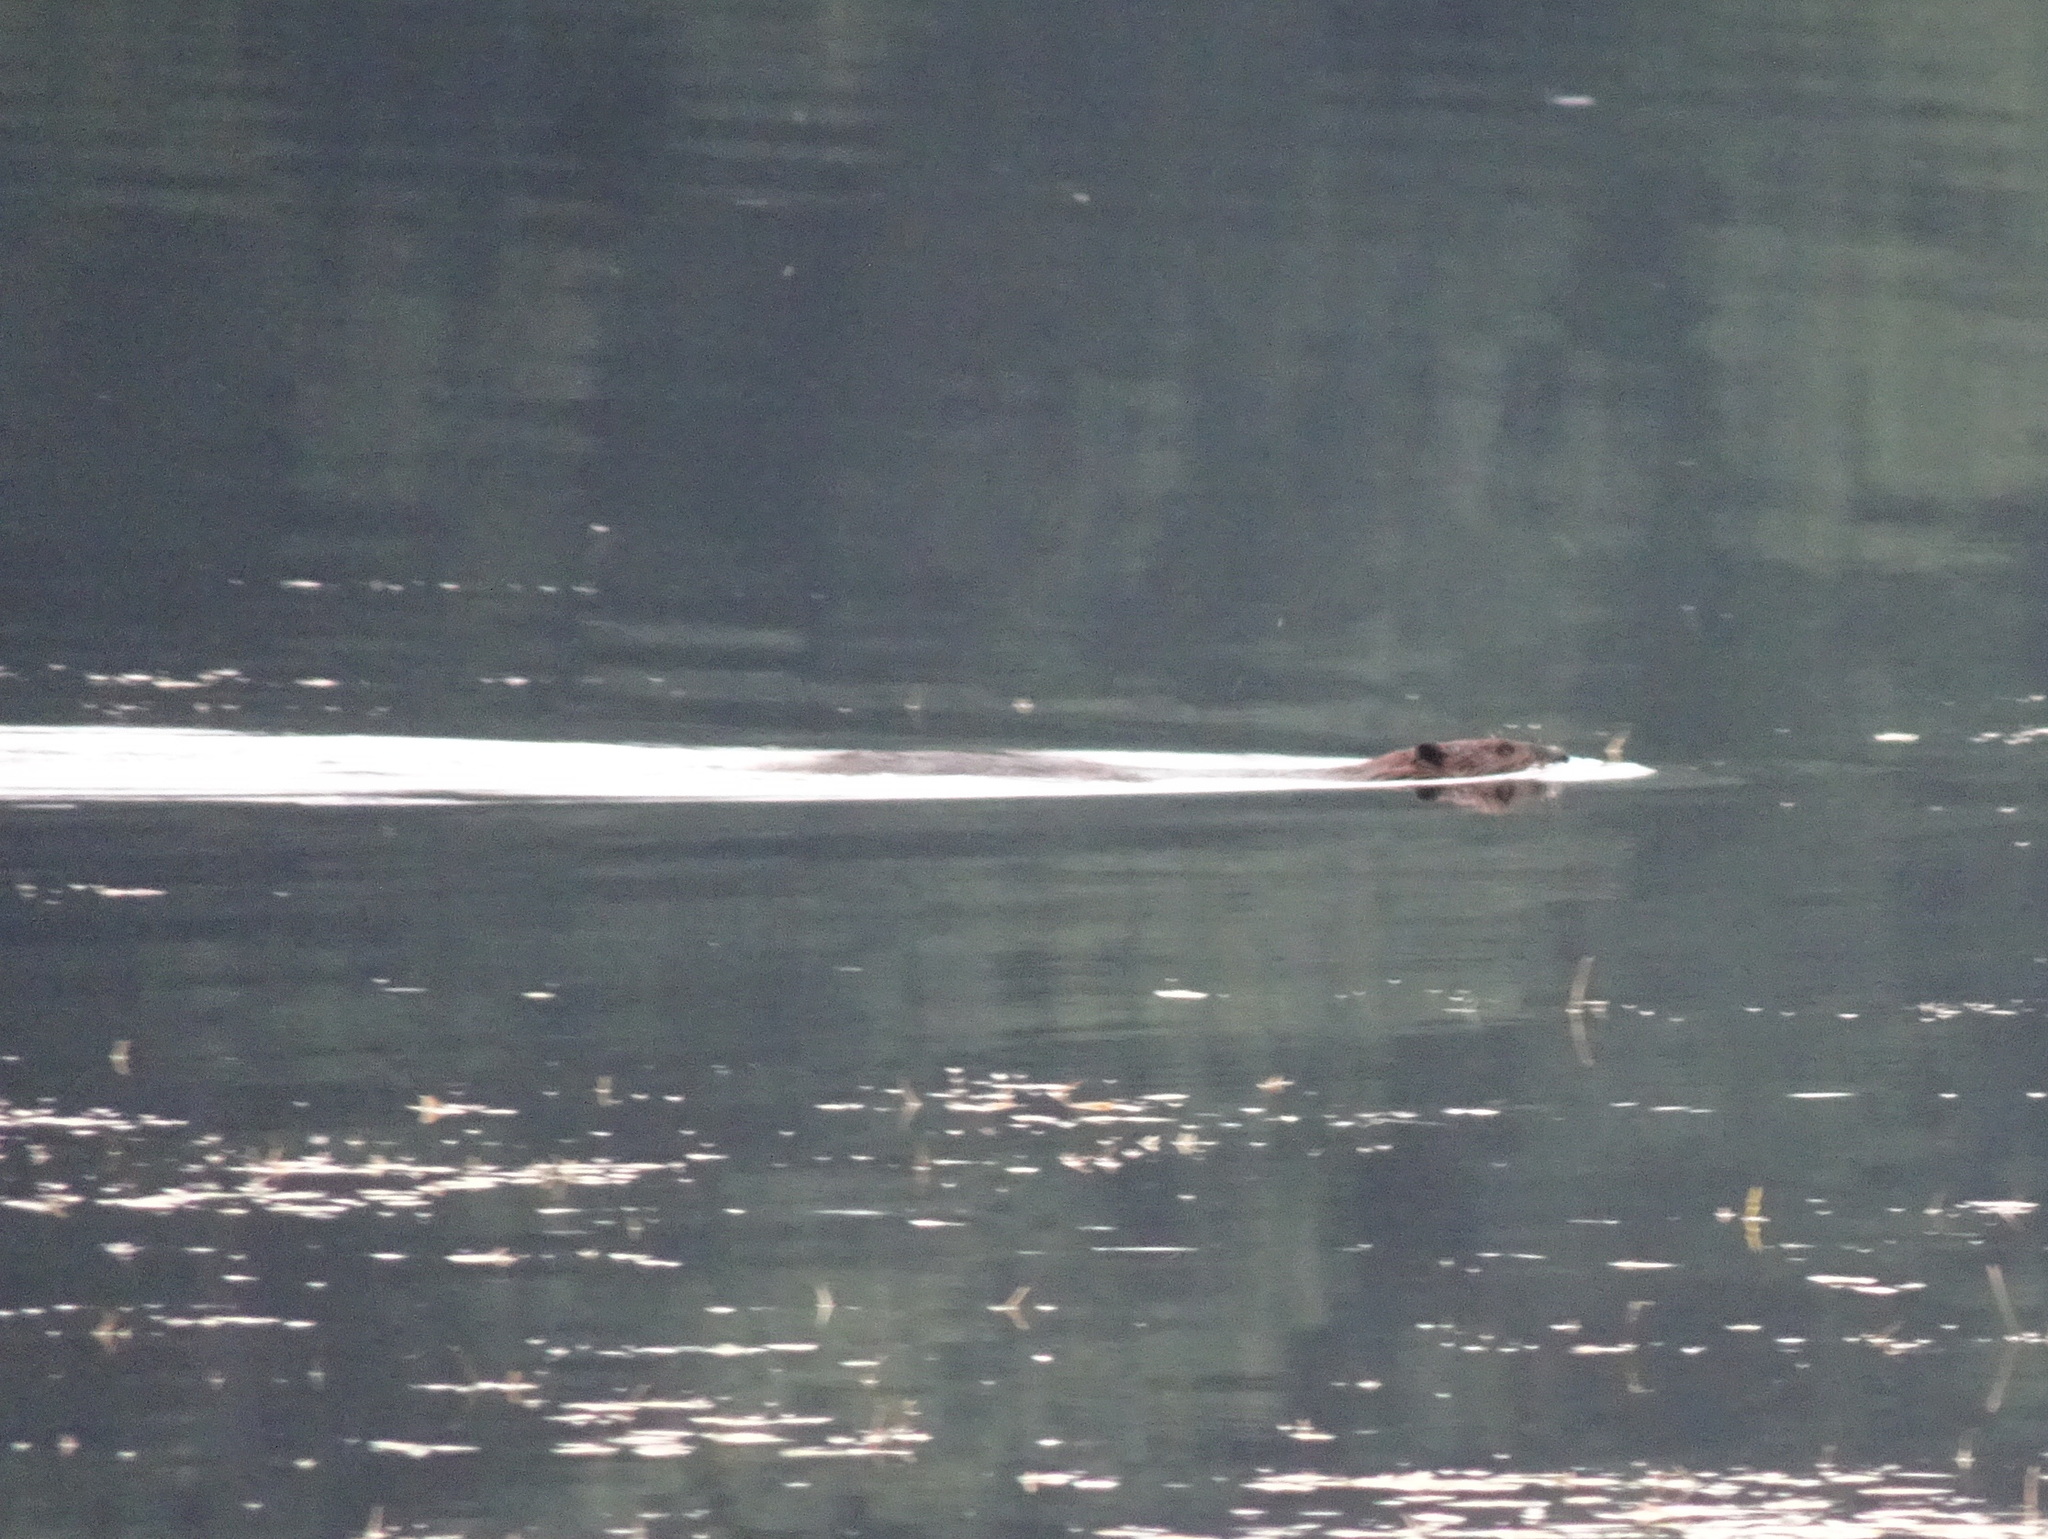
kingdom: Animalia
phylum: Chordata
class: Mammalia
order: Rodentia
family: Castoridae
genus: Castor
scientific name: Castor canadensis
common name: American beaver
